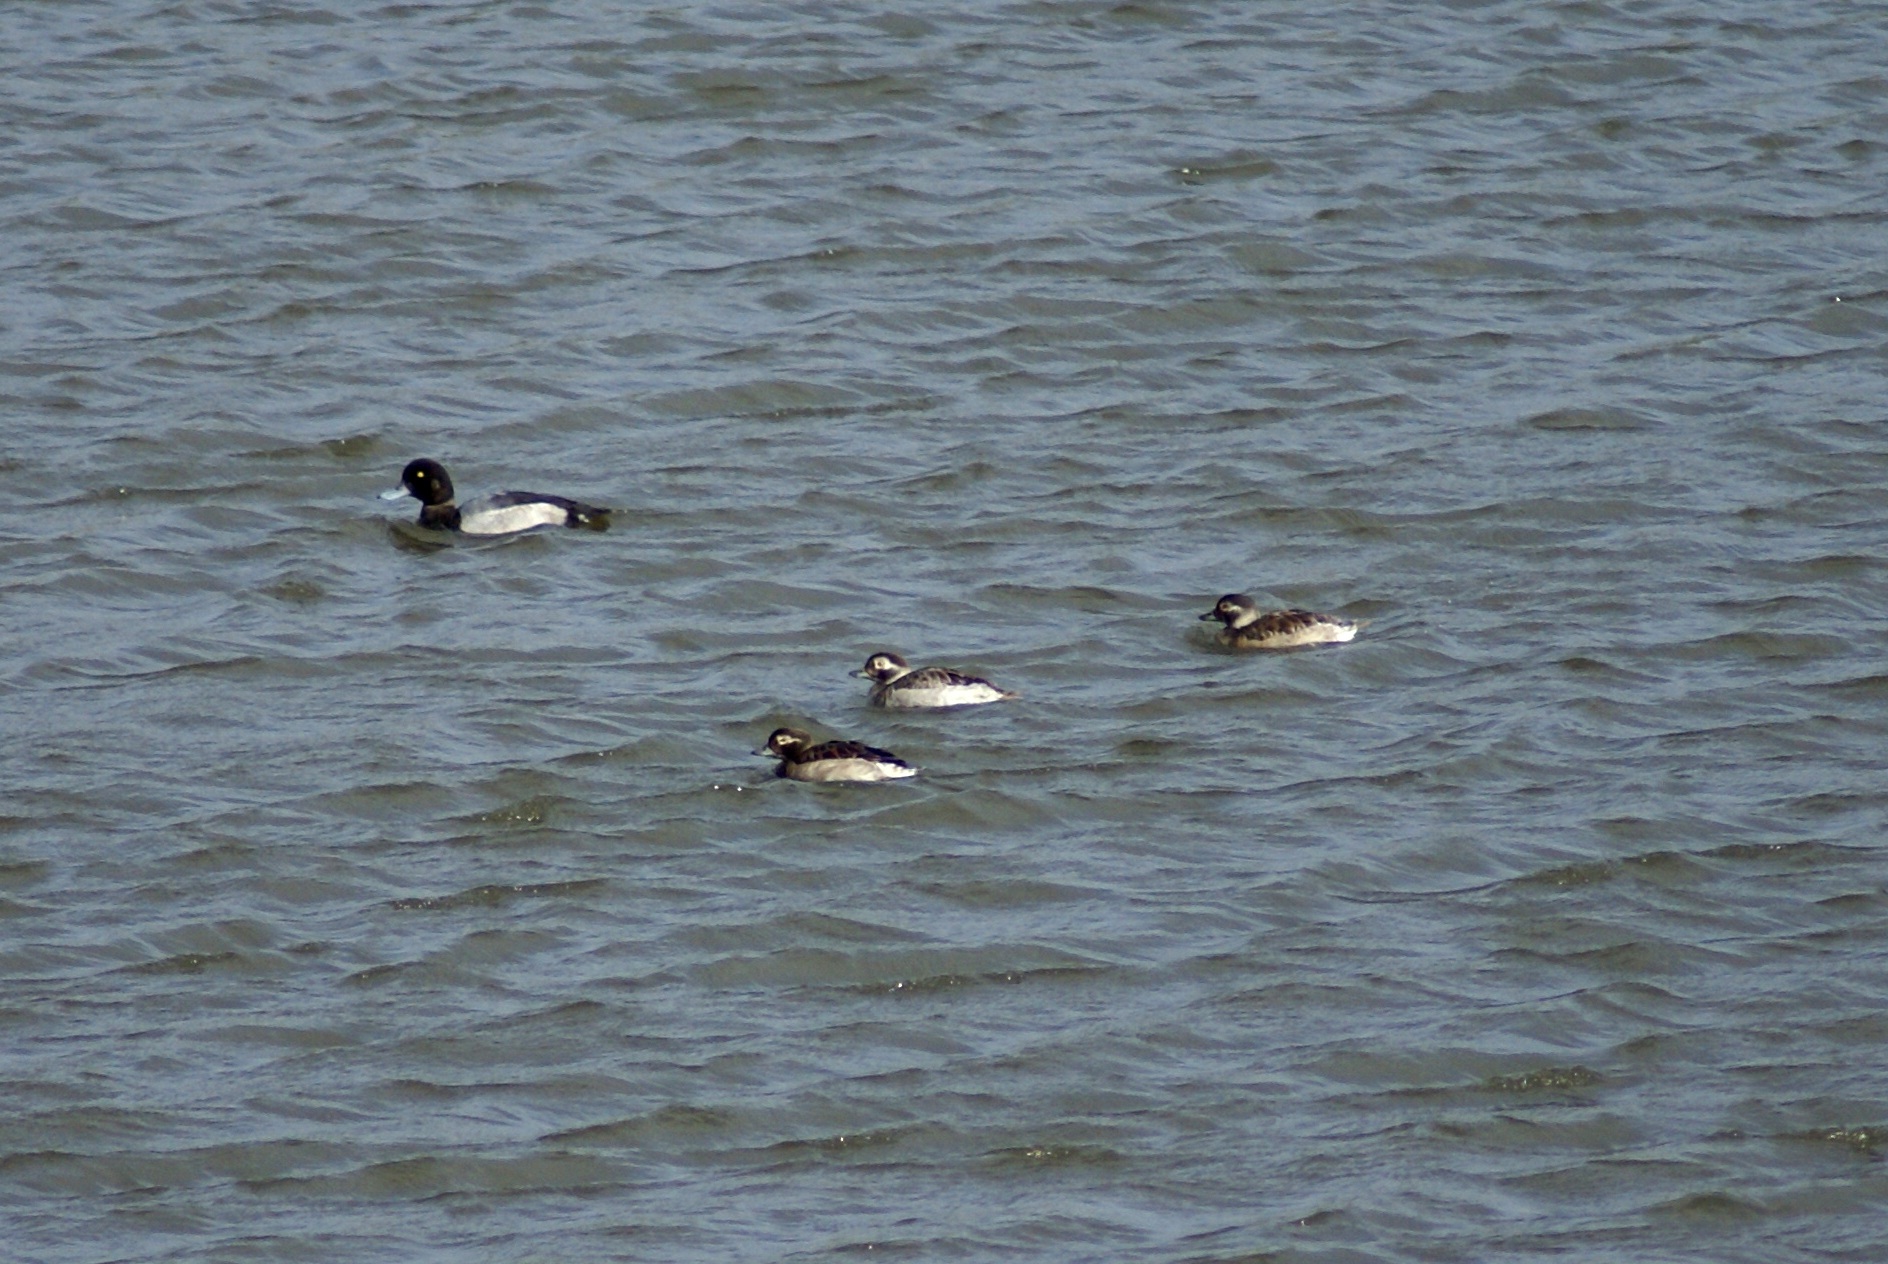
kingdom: Animalia
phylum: Chordata
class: Aves
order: Anseriformes
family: Anatidae
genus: Clangula
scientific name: Clangula hyemalis
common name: Long-tailed duck
